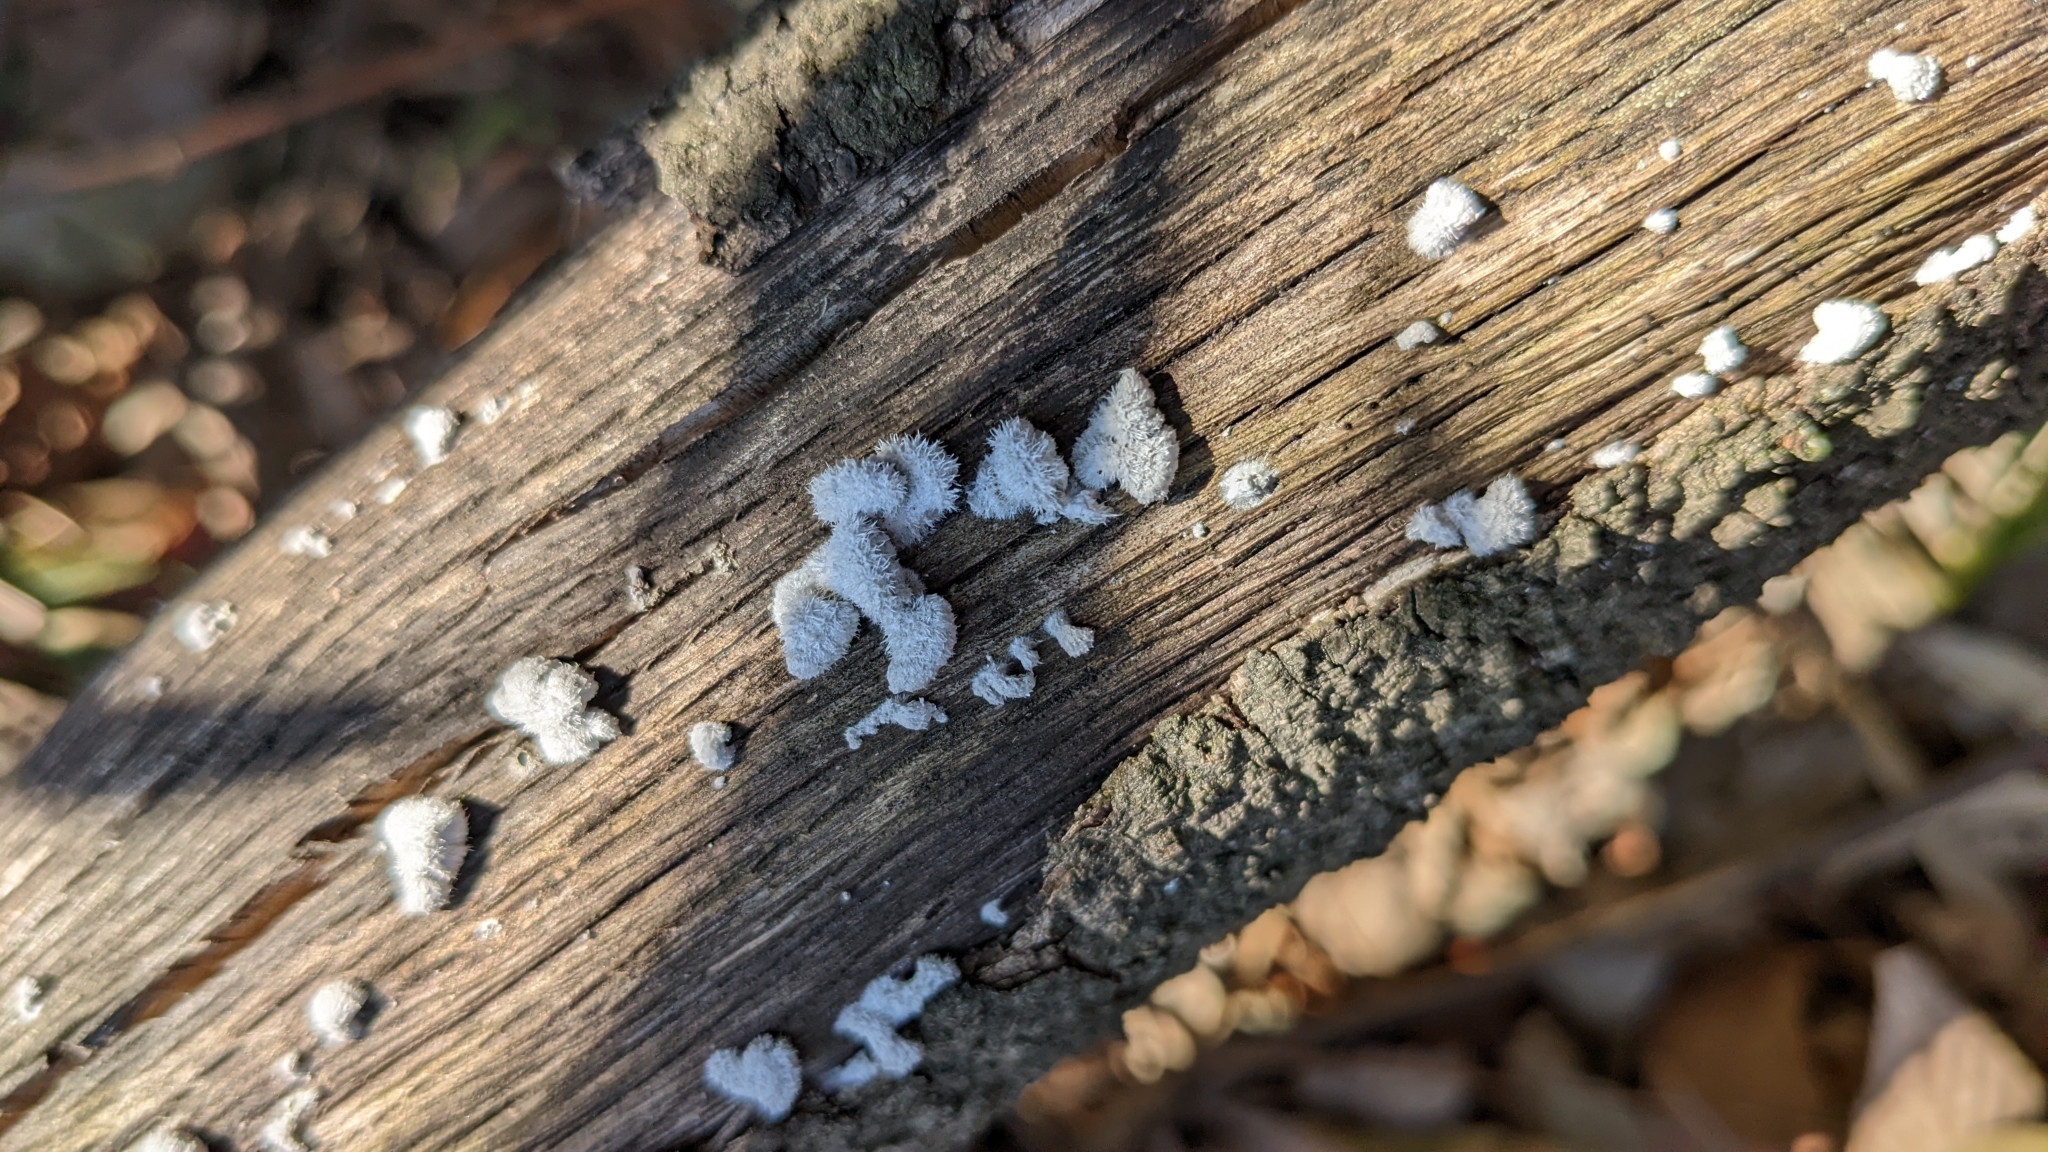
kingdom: Fungi
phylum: Basidiomycota
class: Agaricomycetes
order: Agaricales
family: Schizophyllaceae
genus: Schizophyllum
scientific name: Schizophyllum commune
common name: Common porecrust
